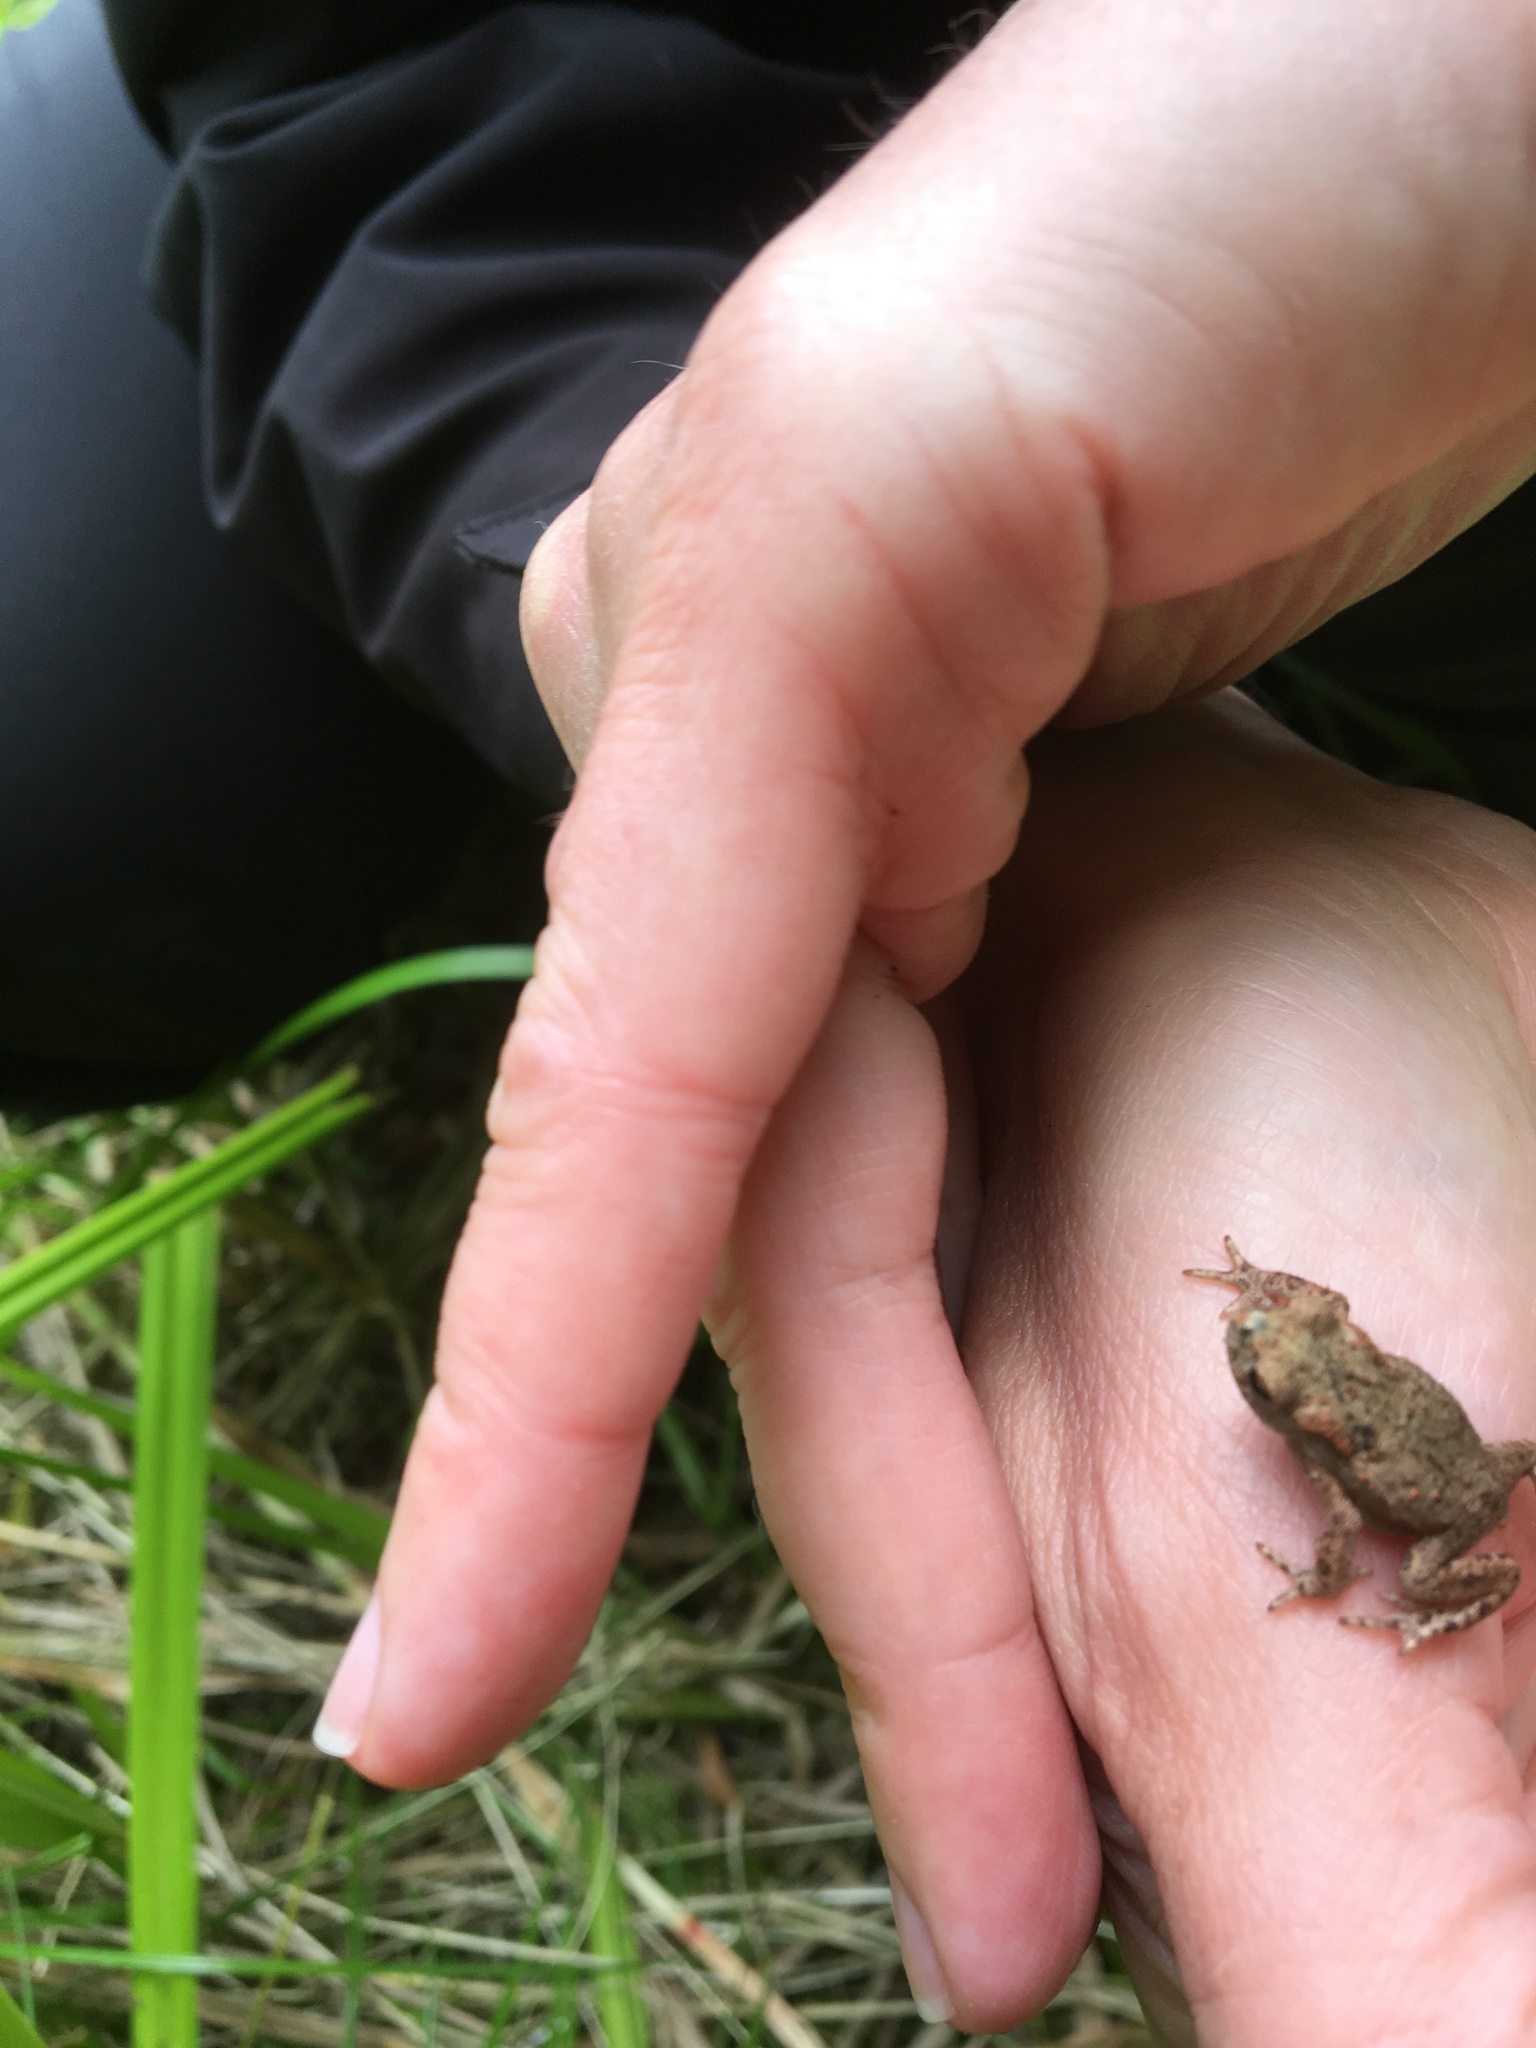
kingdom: Animalia
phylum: Chordata
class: Amphibia
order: Anura
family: Bufonidae
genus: Bufo
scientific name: Bufo bufo
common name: Common toad
